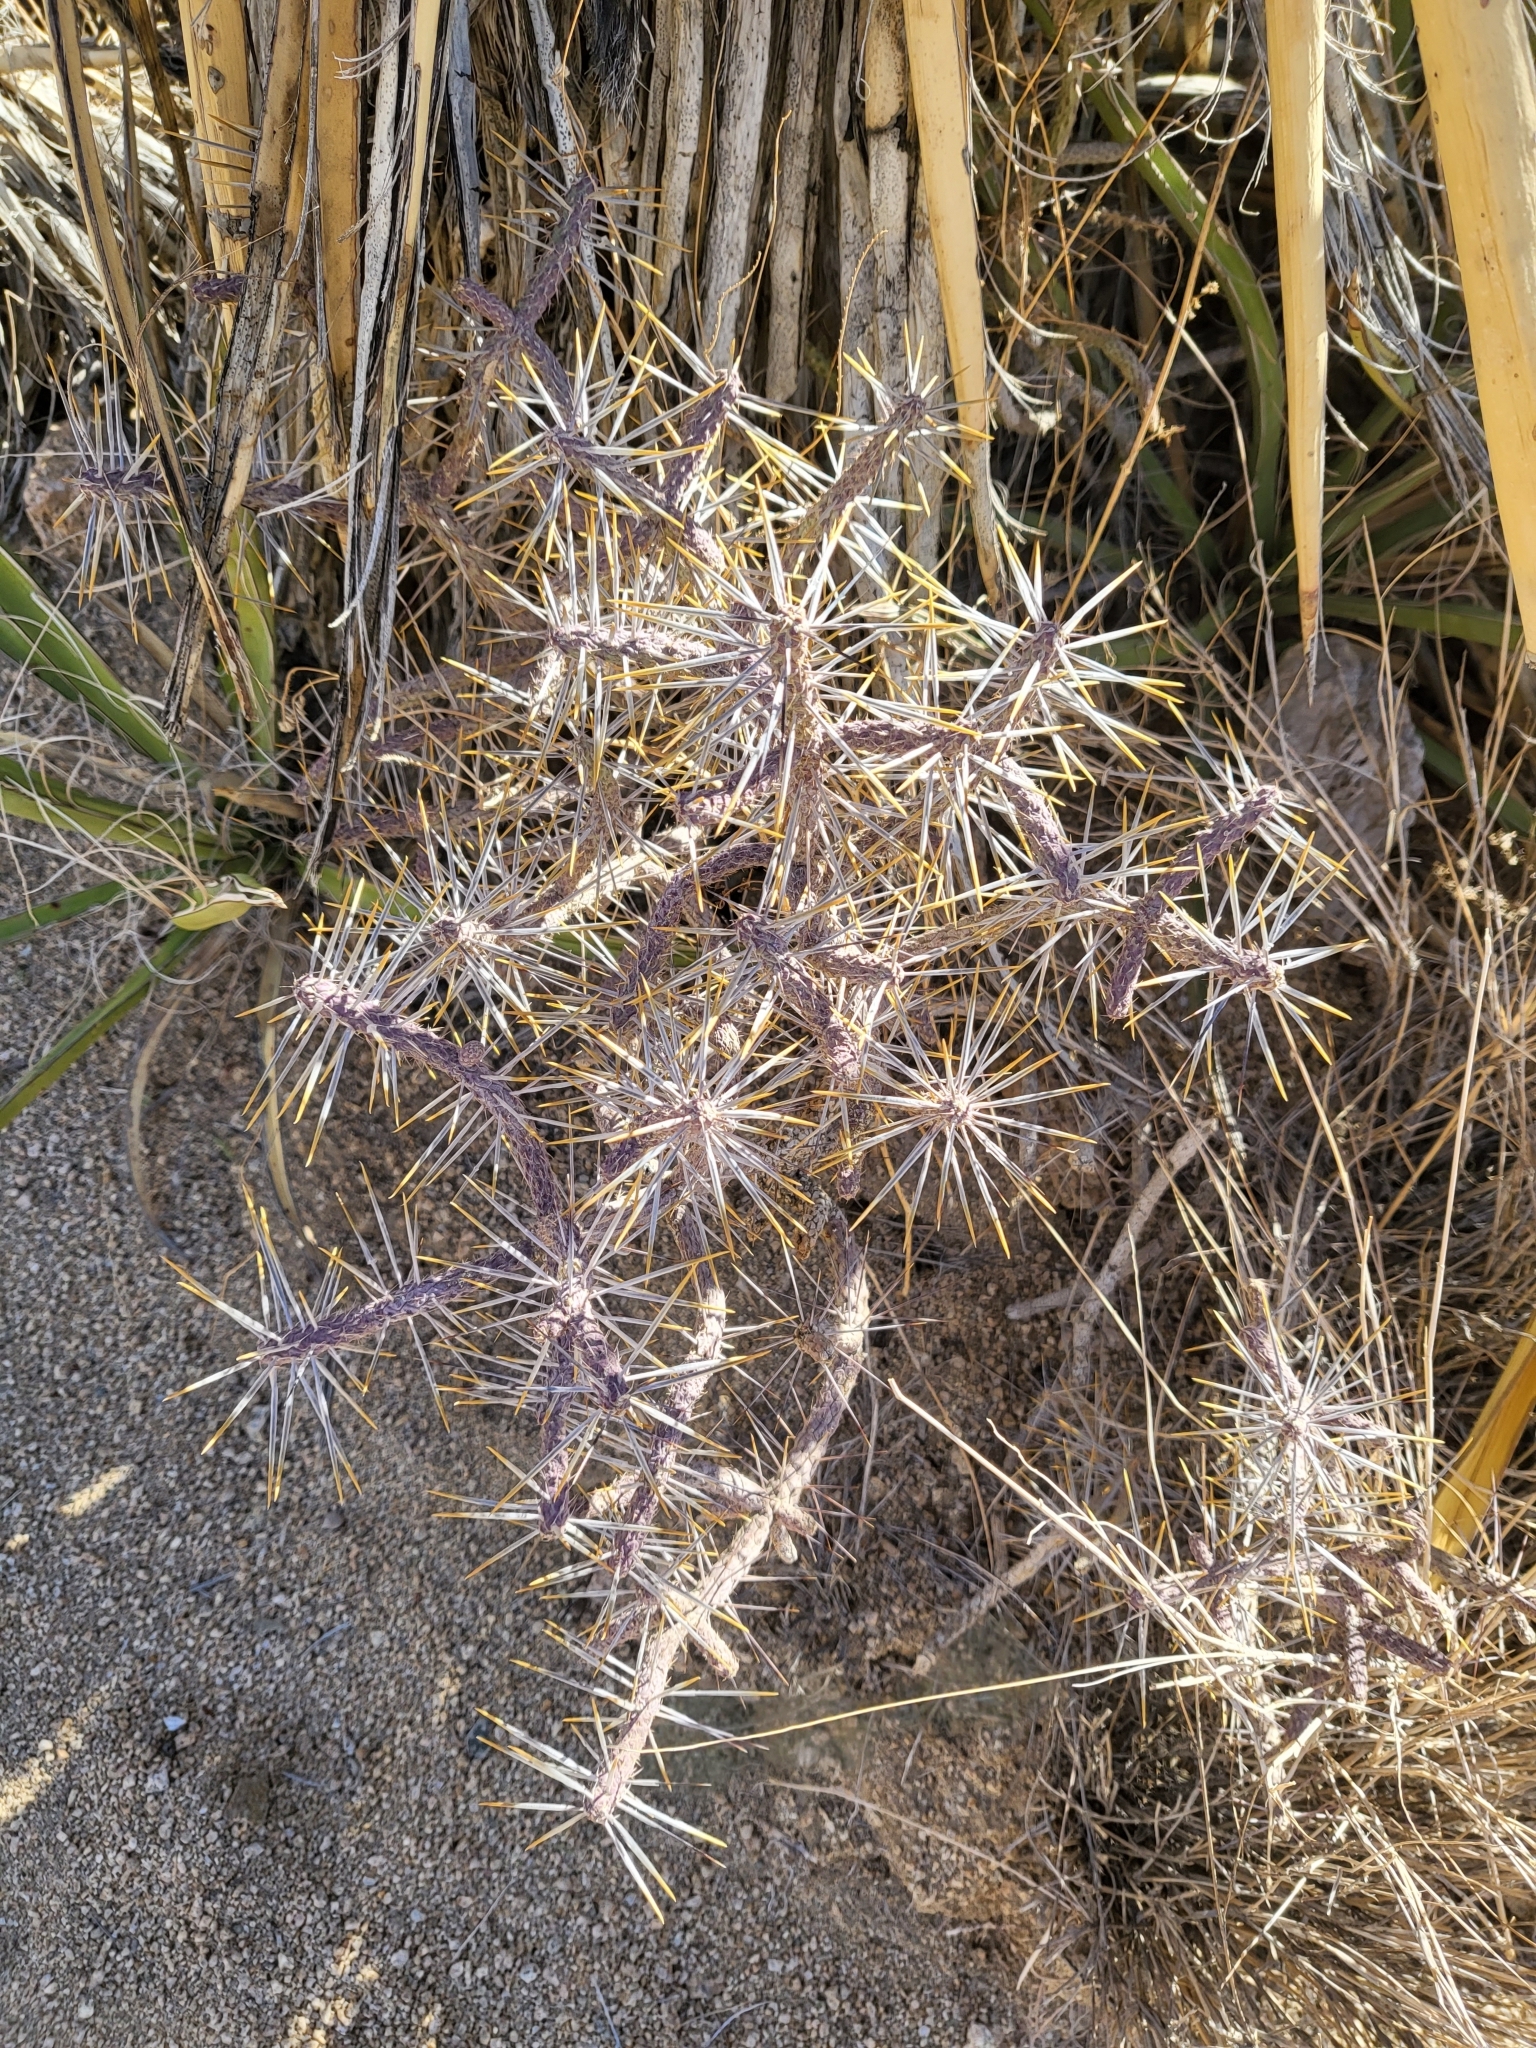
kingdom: Plantae
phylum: Tracheophyta
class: Magnoliopsida
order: Caryophyllales
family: Cactaceae
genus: Cylindropuntia
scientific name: Cylindropuntia ramosissima
